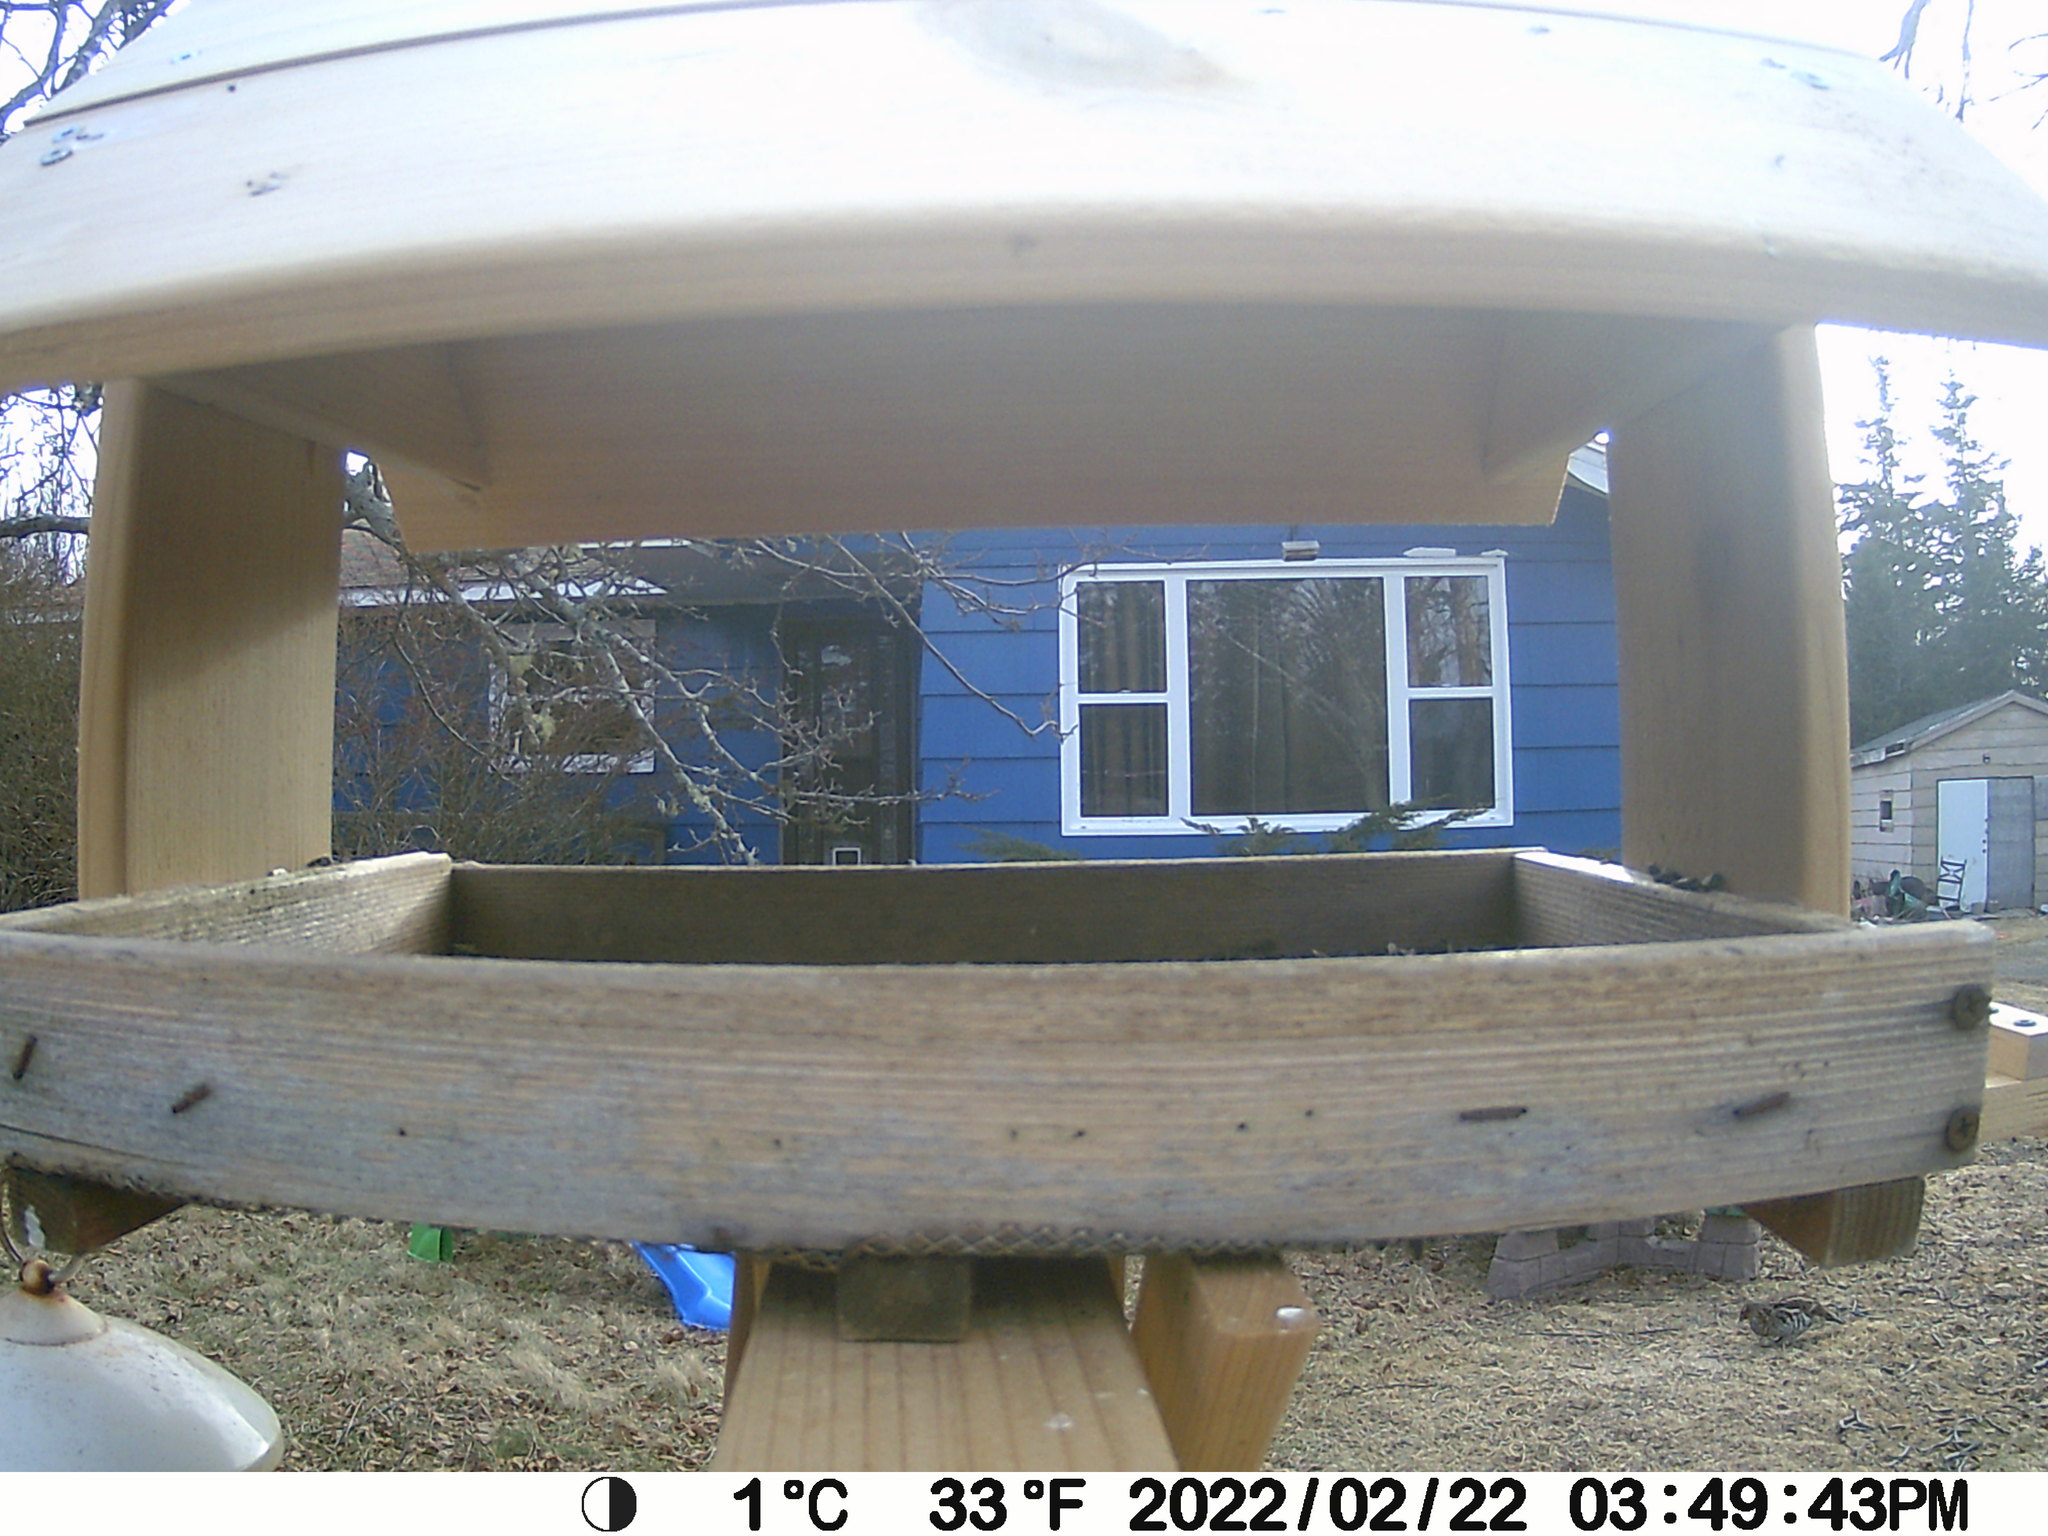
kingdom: Animalia
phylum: Chordata
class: Aves
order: Galliformes
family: Phasianidae
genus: Bonasa
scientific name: Bonasa umbellus
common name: Ruffed grouse
